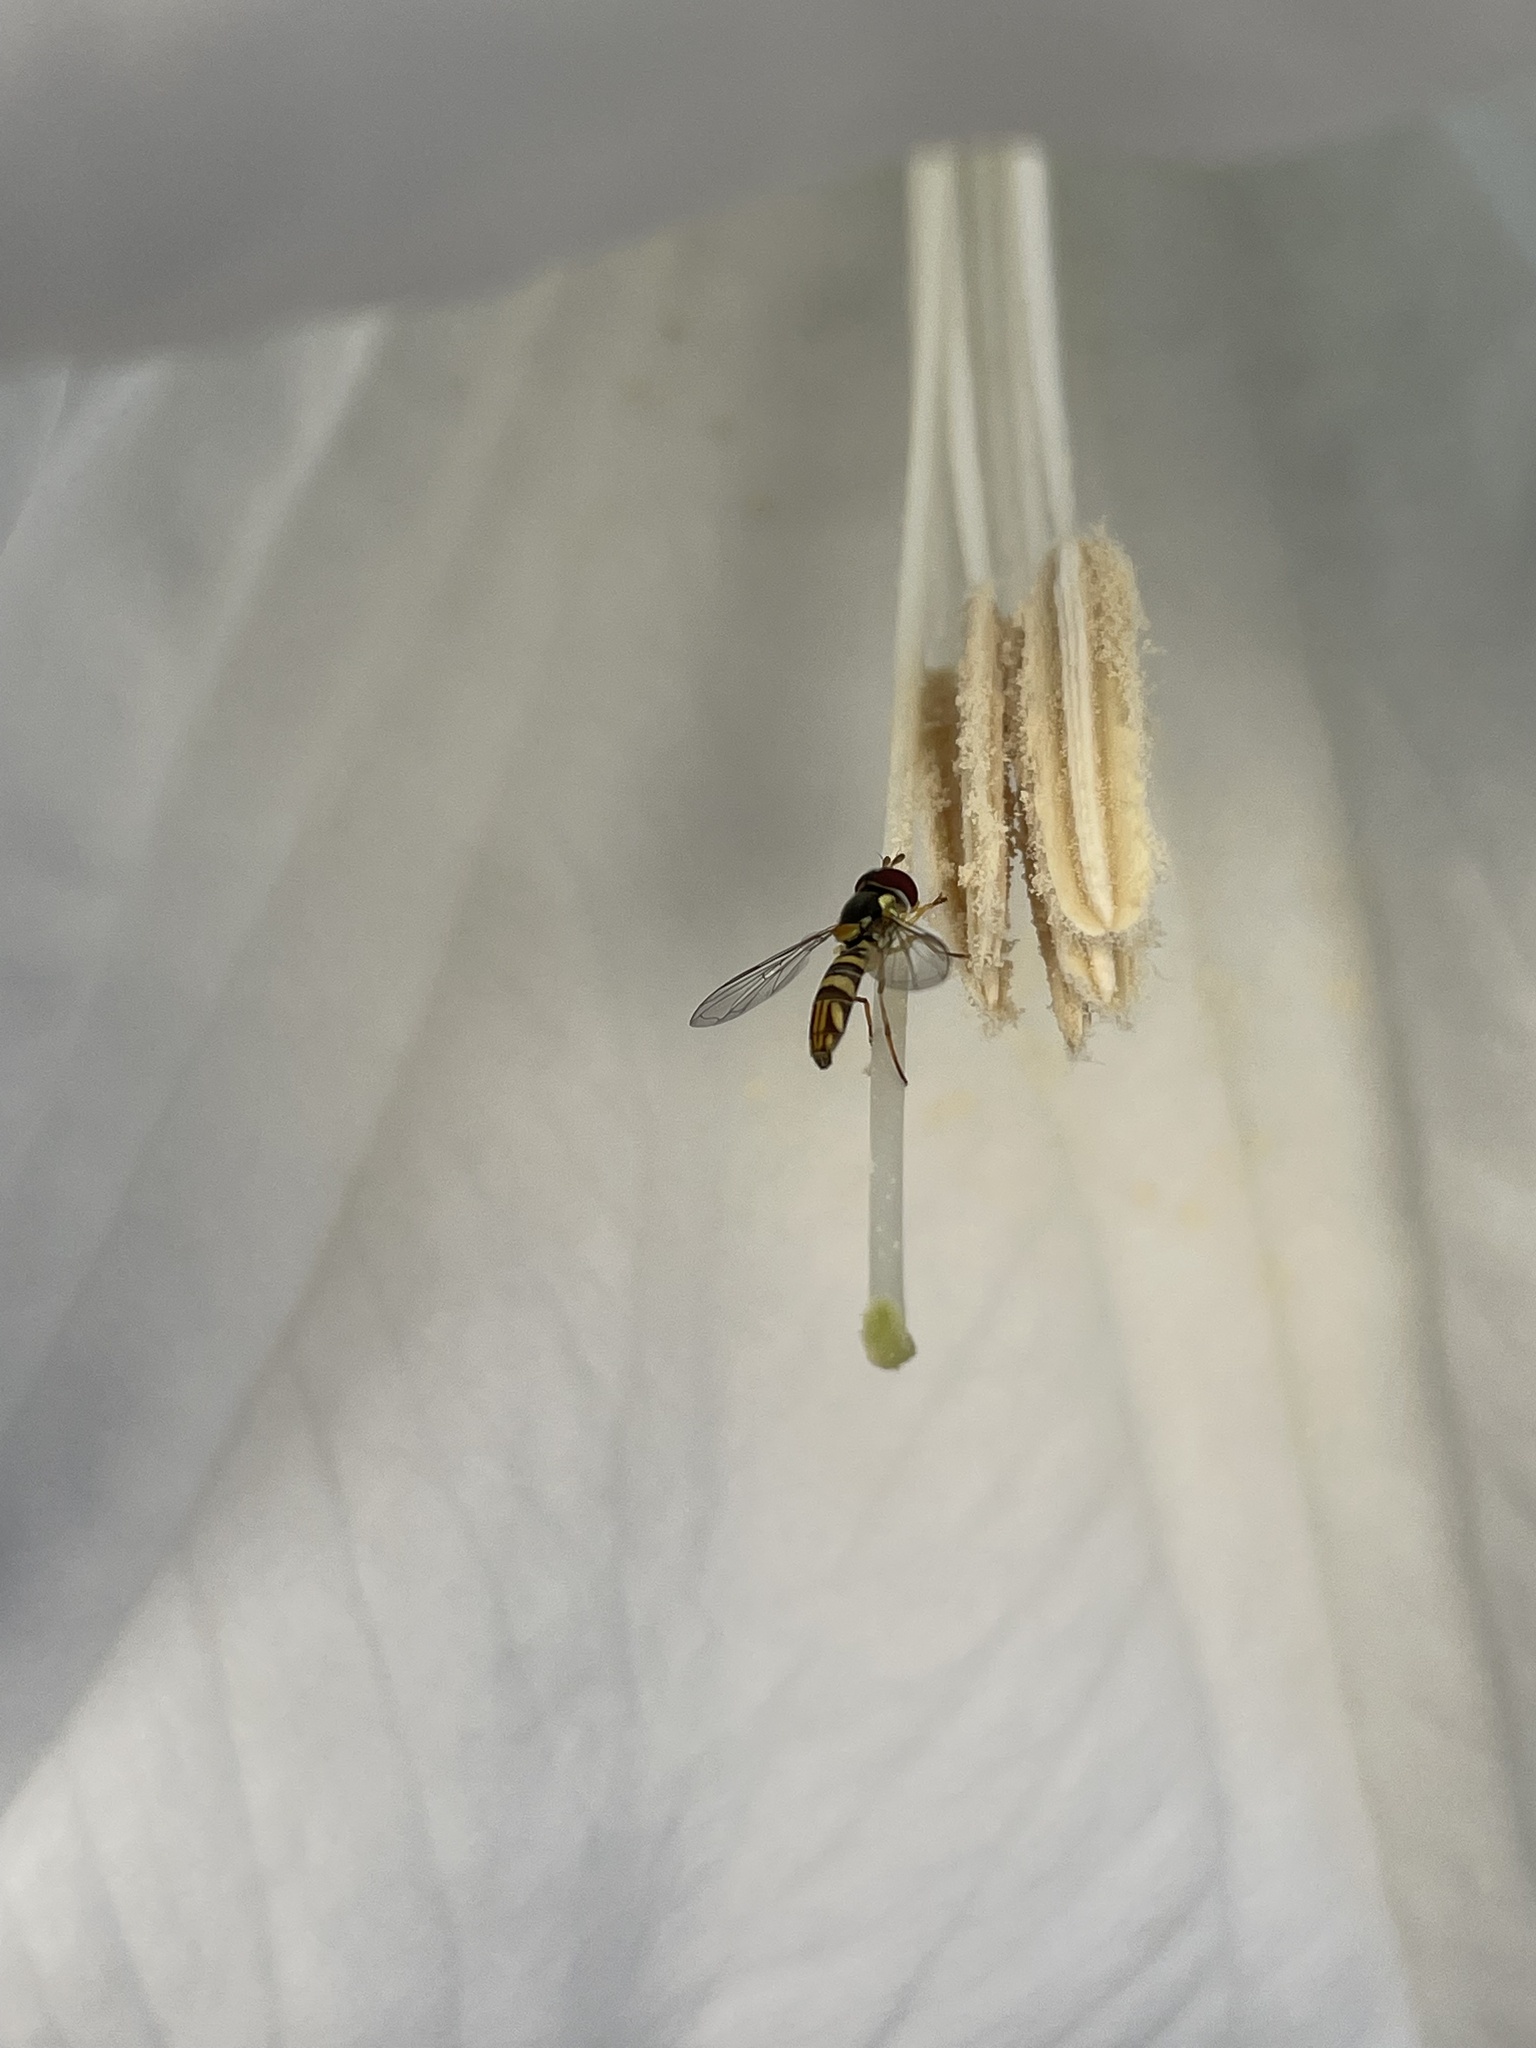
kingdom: Animalia
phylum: Arthropoda
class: Insecta
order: Diptera
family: Syrphidae
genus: Allograpta
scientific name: Allograpta obliqua
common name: Common oblique syrphid
